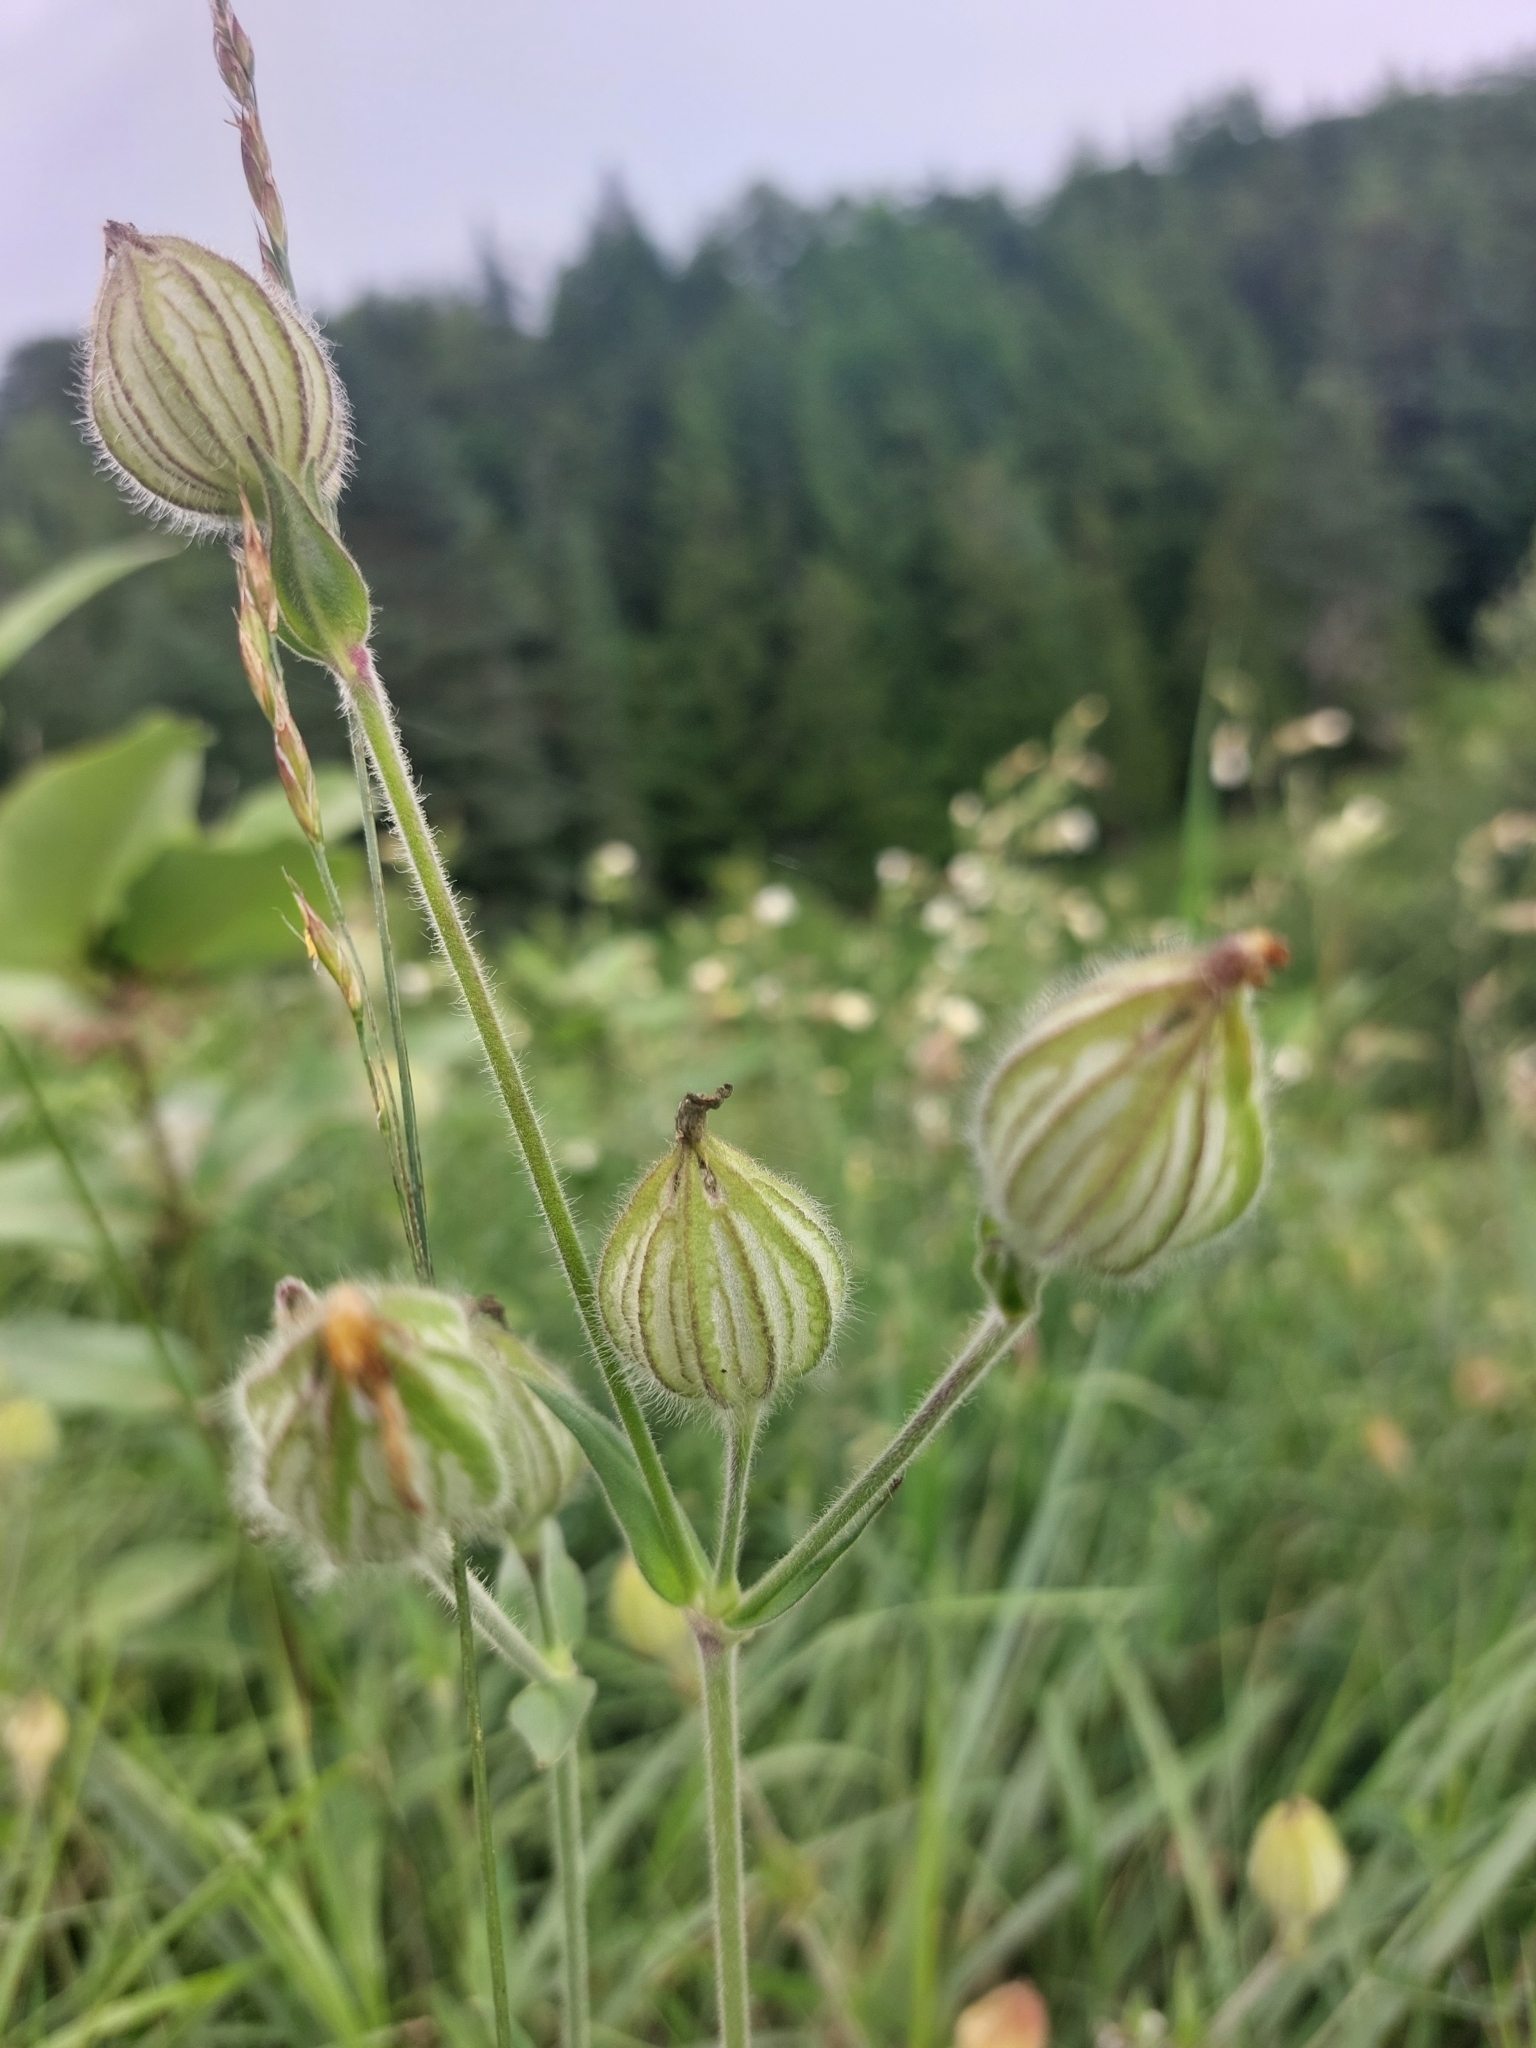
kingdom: Plantae
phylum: Tracheophyta
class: Magnoliopsida
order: Caryophyllales
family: Caryophyllaceae
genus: Silene
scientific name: Silene latifolia
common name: White campion
